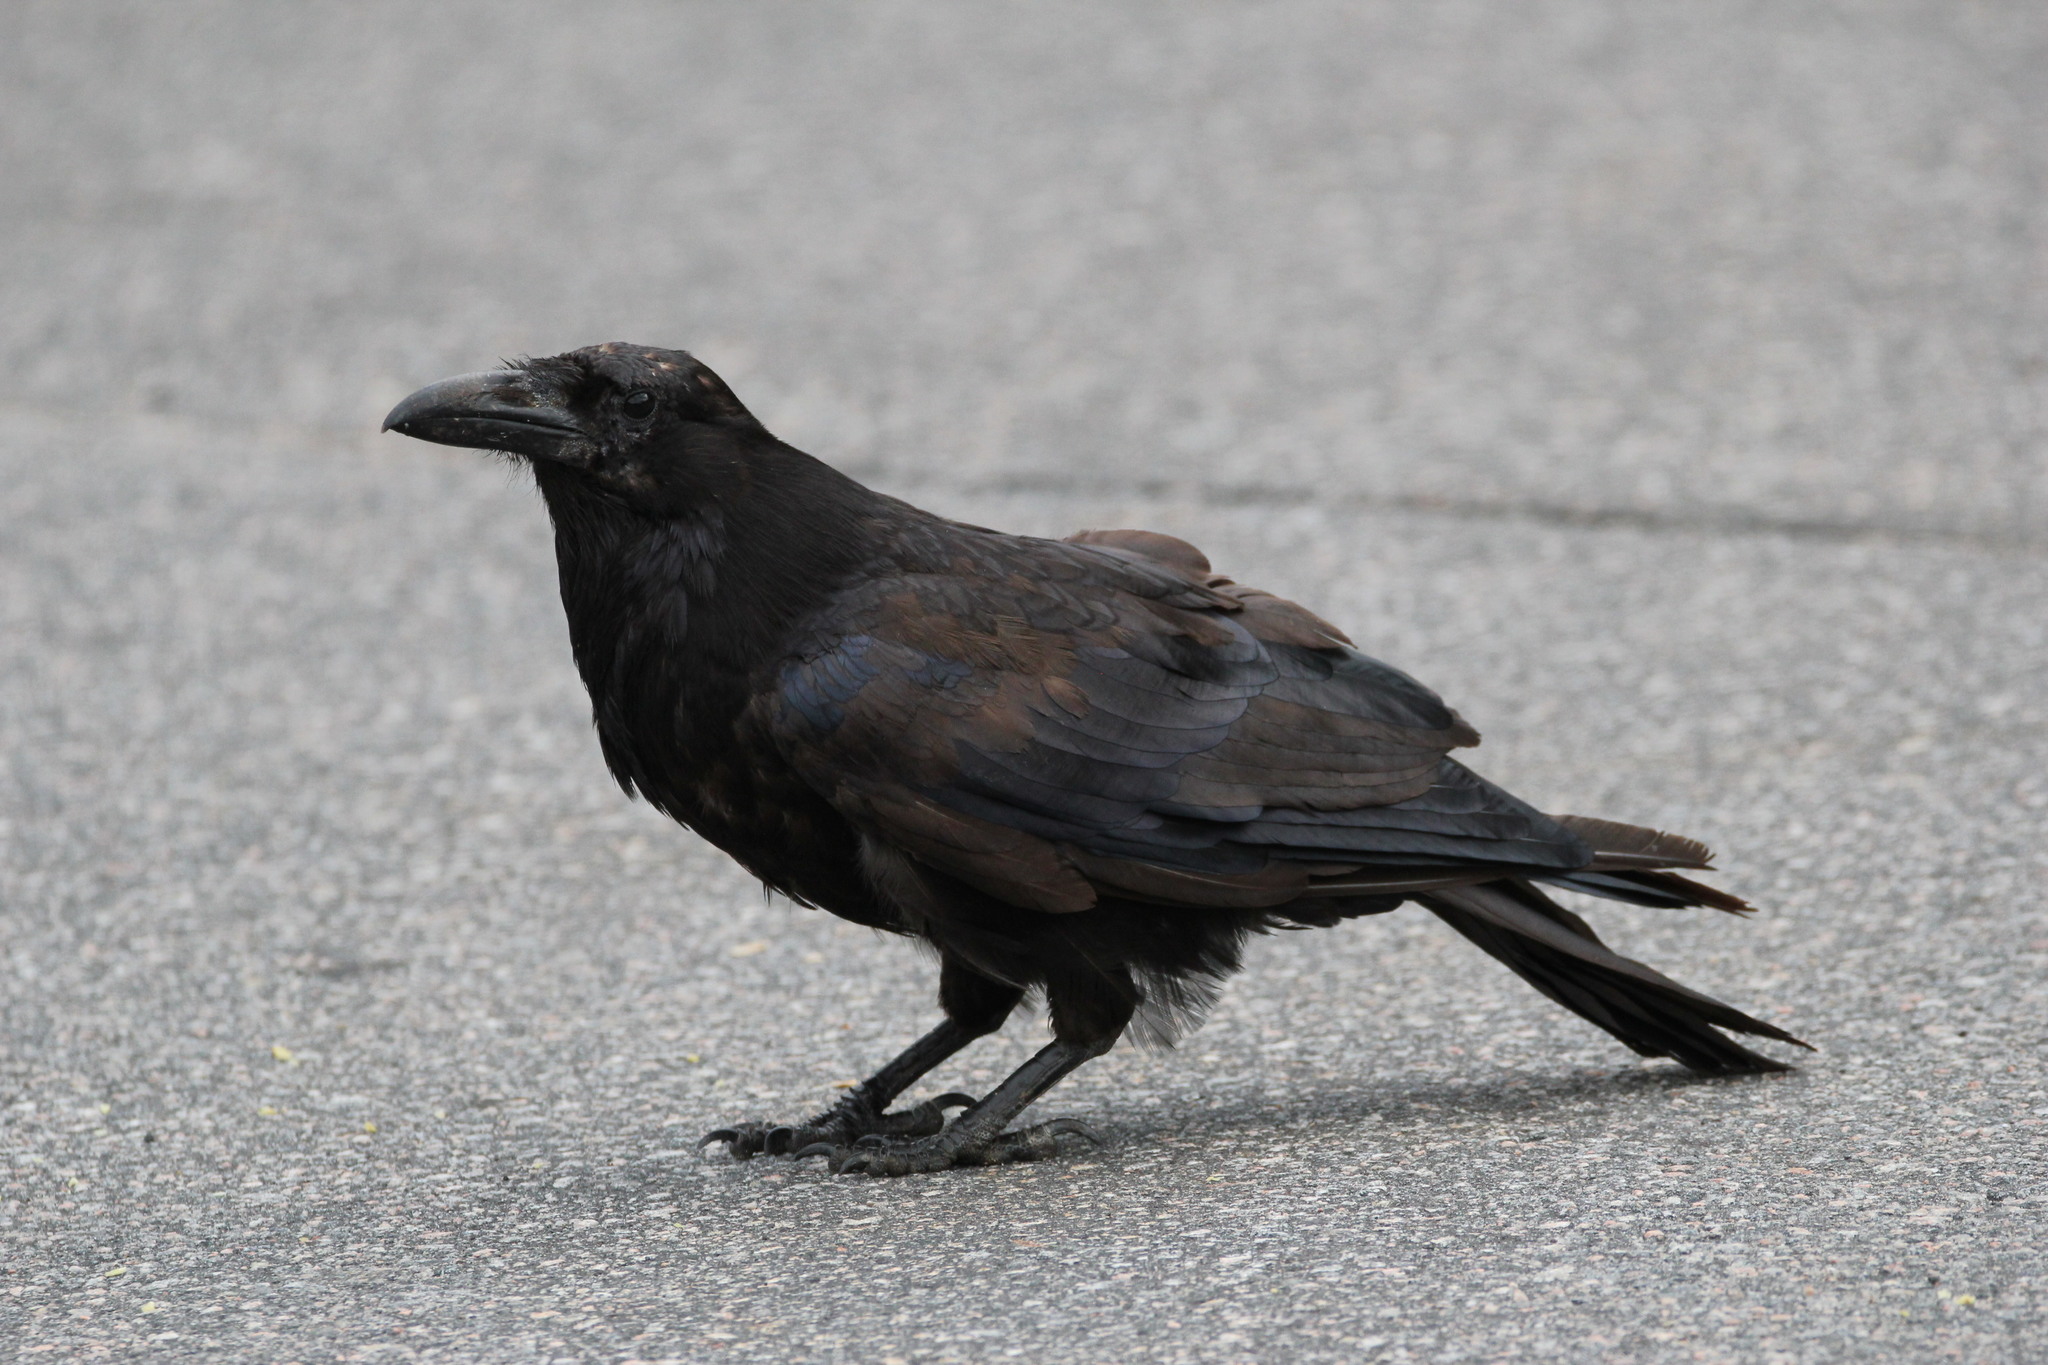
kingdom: Animalia
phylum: Chordata
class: Aves
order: Passeriformes
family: Corvidae
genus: Corvus
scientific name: Corvus corax
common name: Common raven
